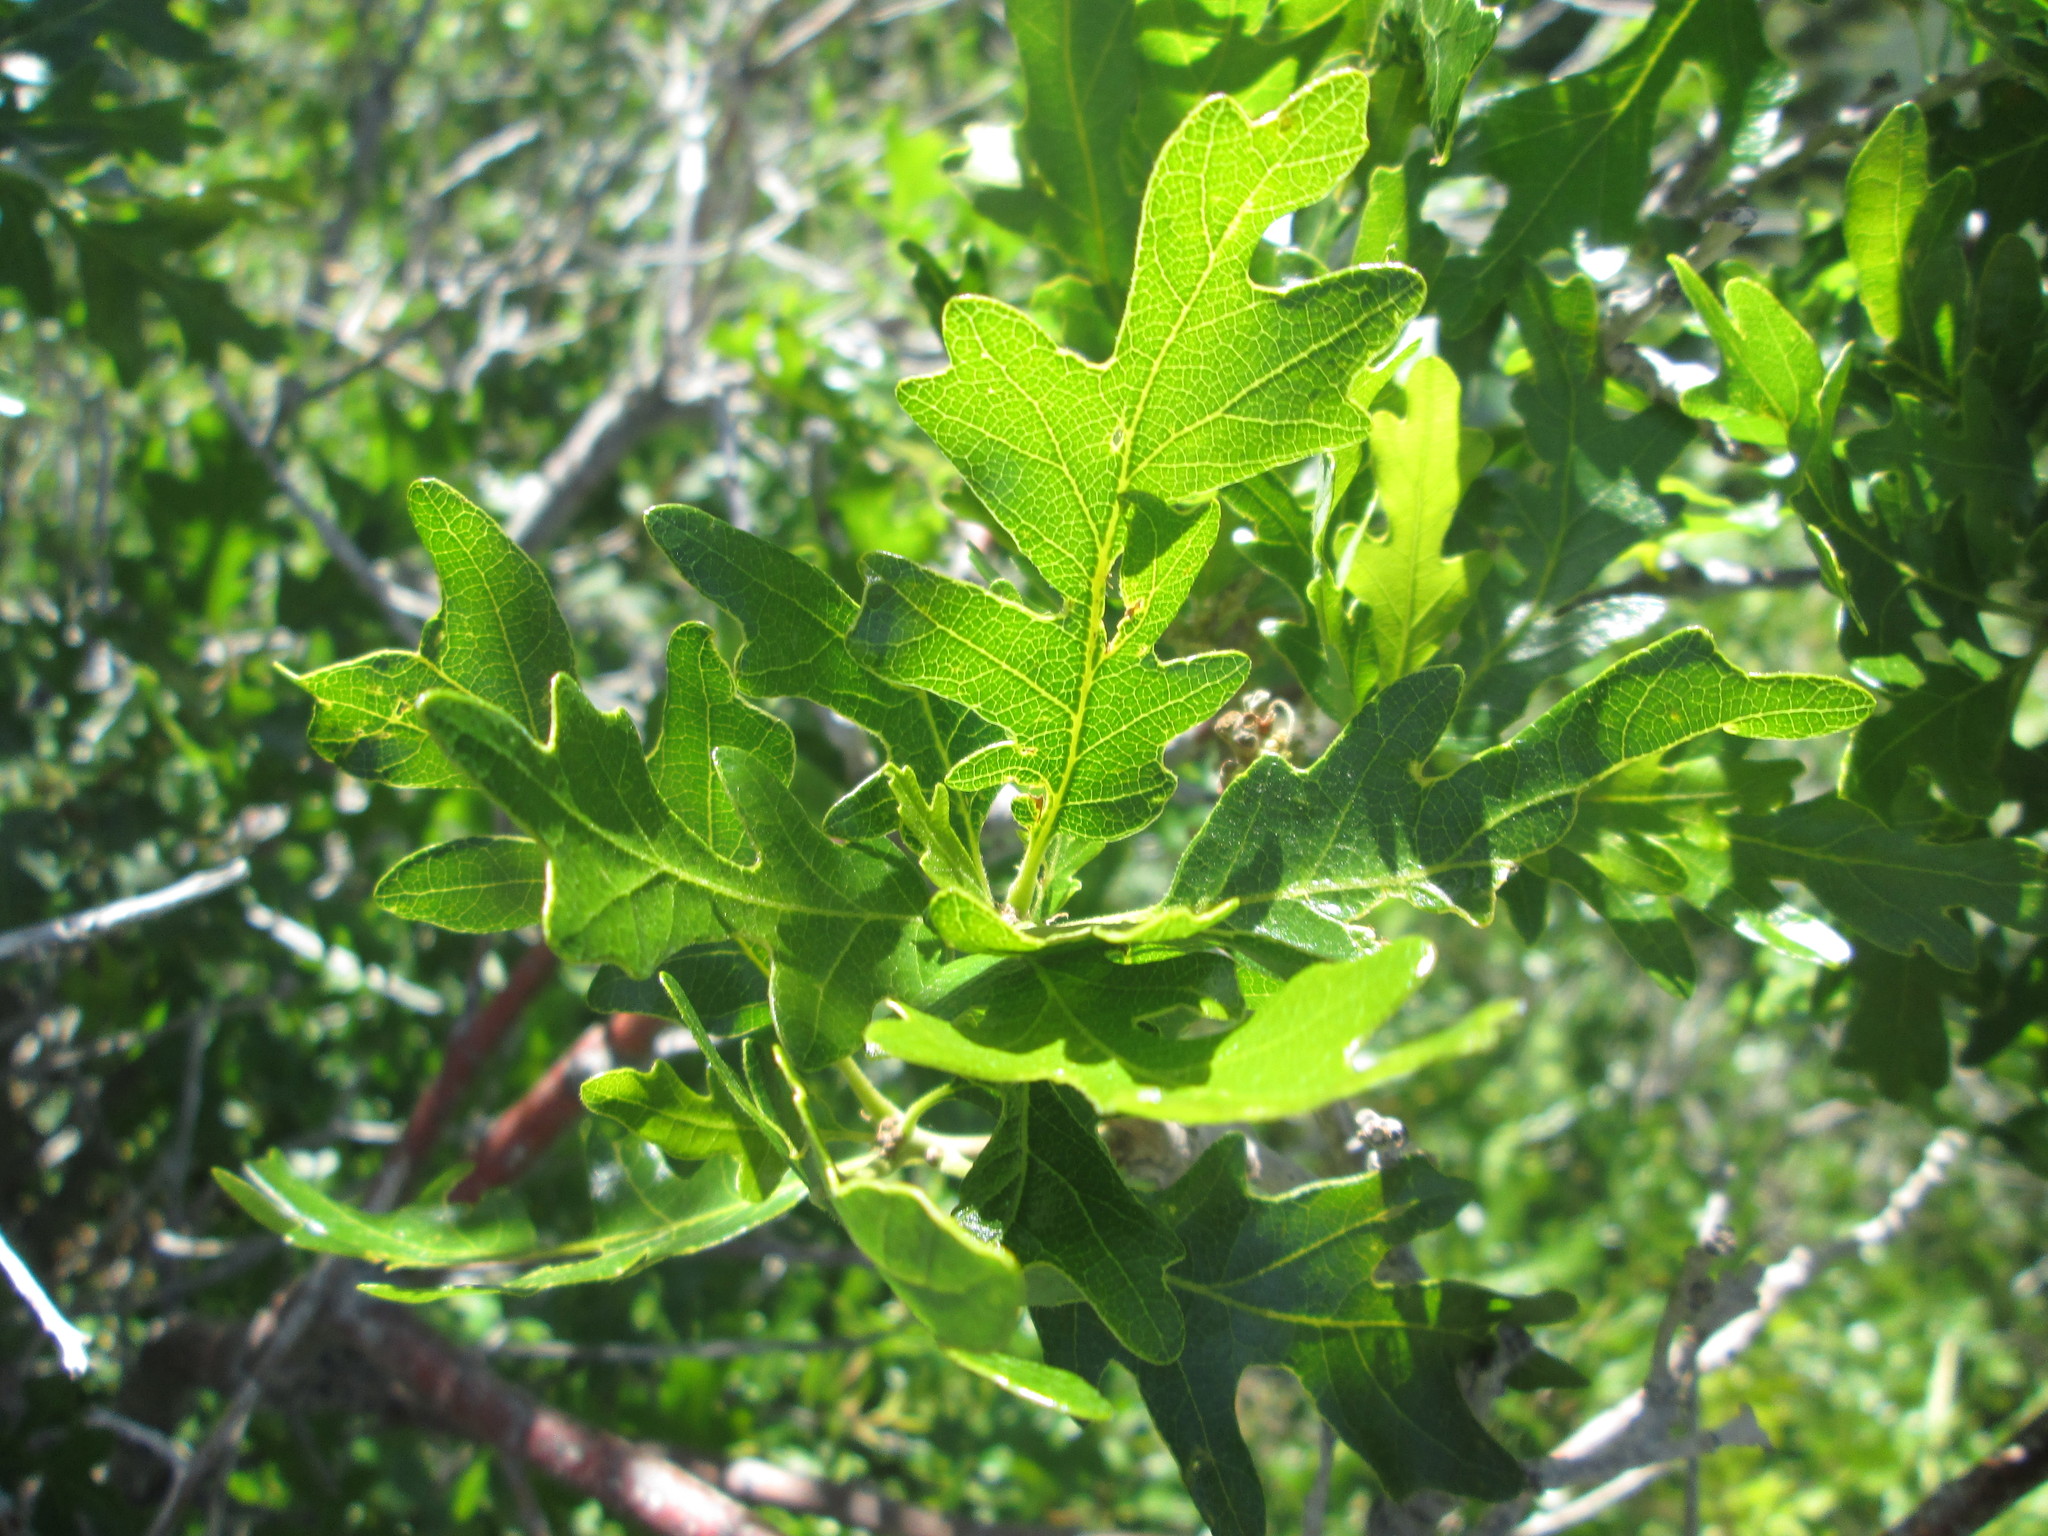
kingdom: Plantae
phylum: Tracheophyta
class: Magnoliopsida
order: Fagales
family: Fagaceae
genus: Quercus
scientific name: Quercus gambelii
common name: Gambel oak
